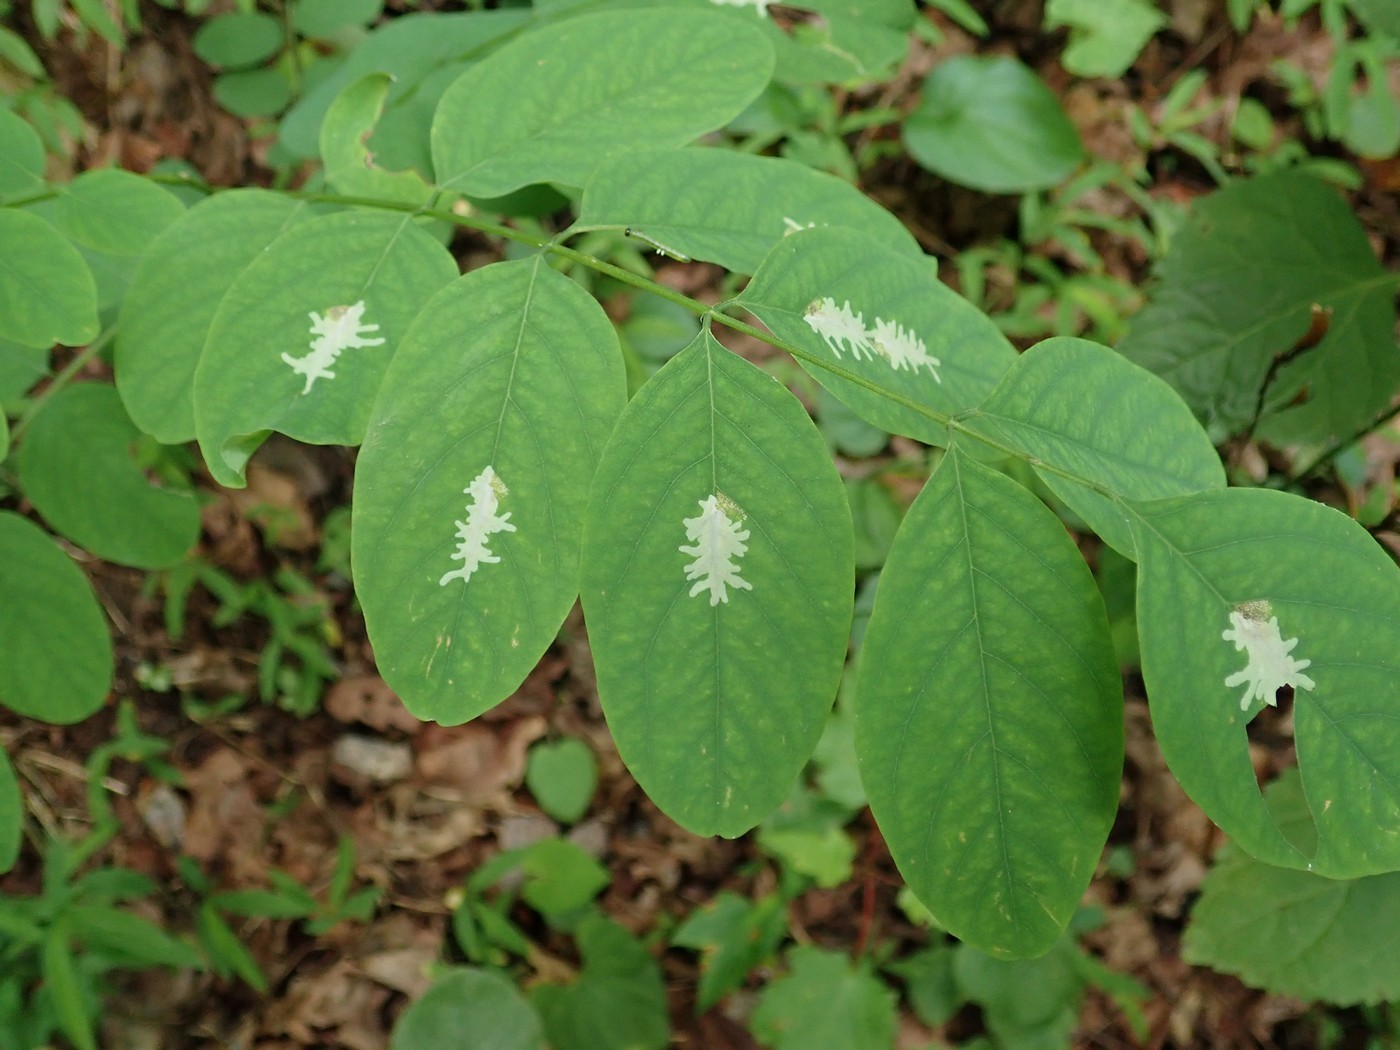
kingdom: Animalia
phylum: Arthropoda
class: Insecta
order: Lepidoptera
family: Gracillariidae
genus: Parectopa
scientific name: Parectopa robiniella
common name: Locust digitate leafminer
